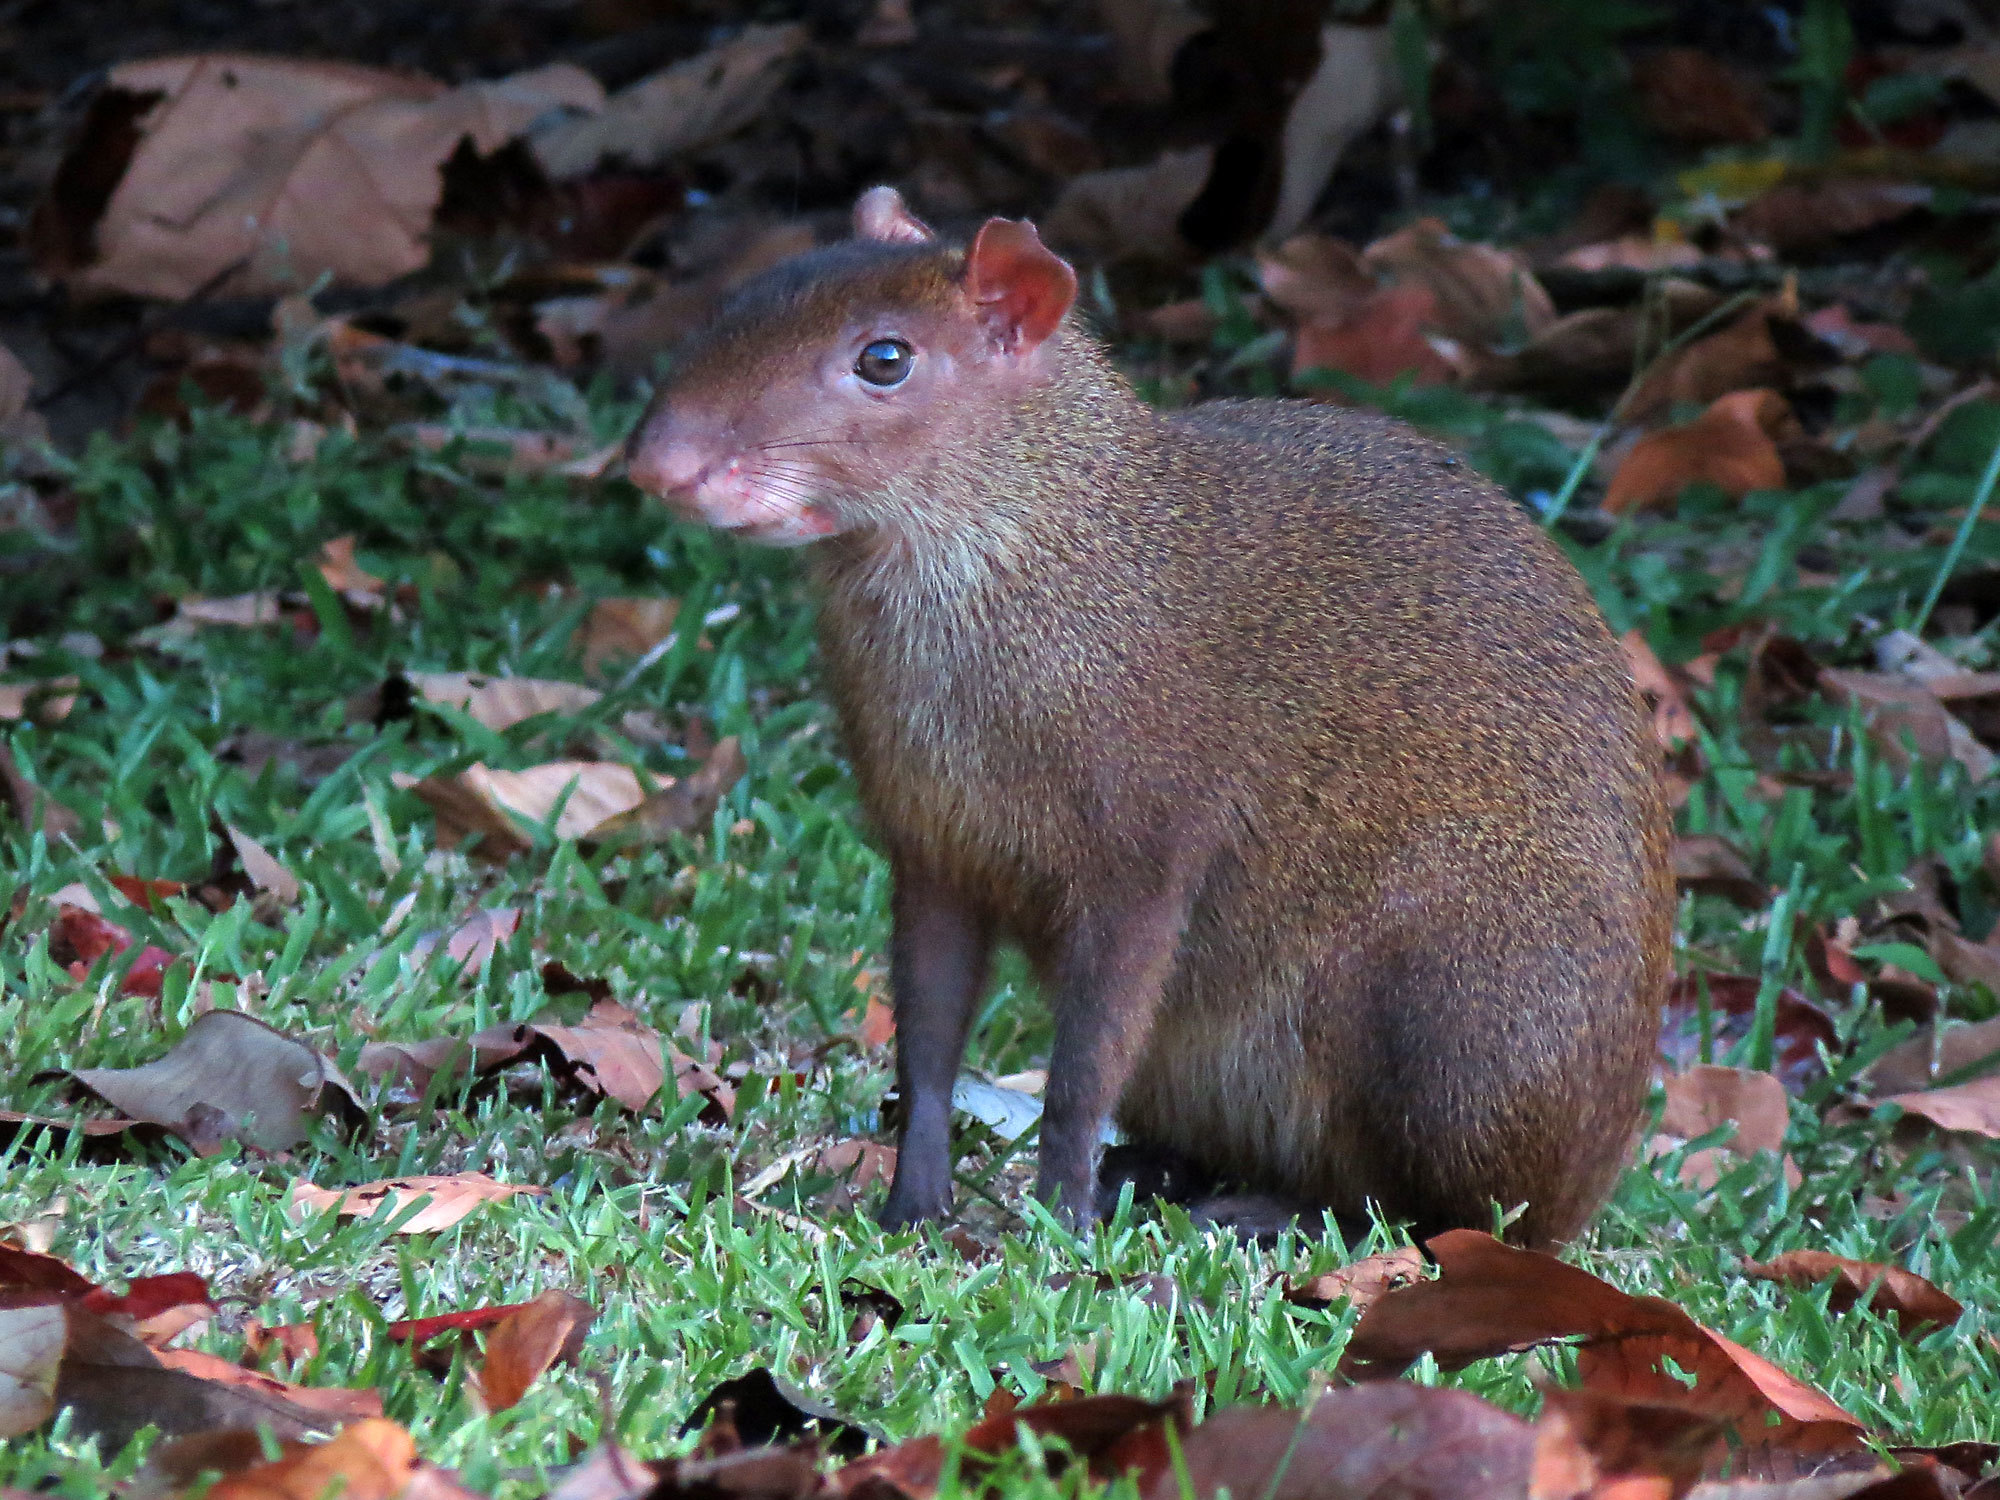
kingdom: Animalia
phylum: Chordata
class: Mammalia
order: Rodentia
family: Dasyproctidae
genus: Dasyprocta
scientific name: Dasyprocta punctata
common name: Central american agouti
